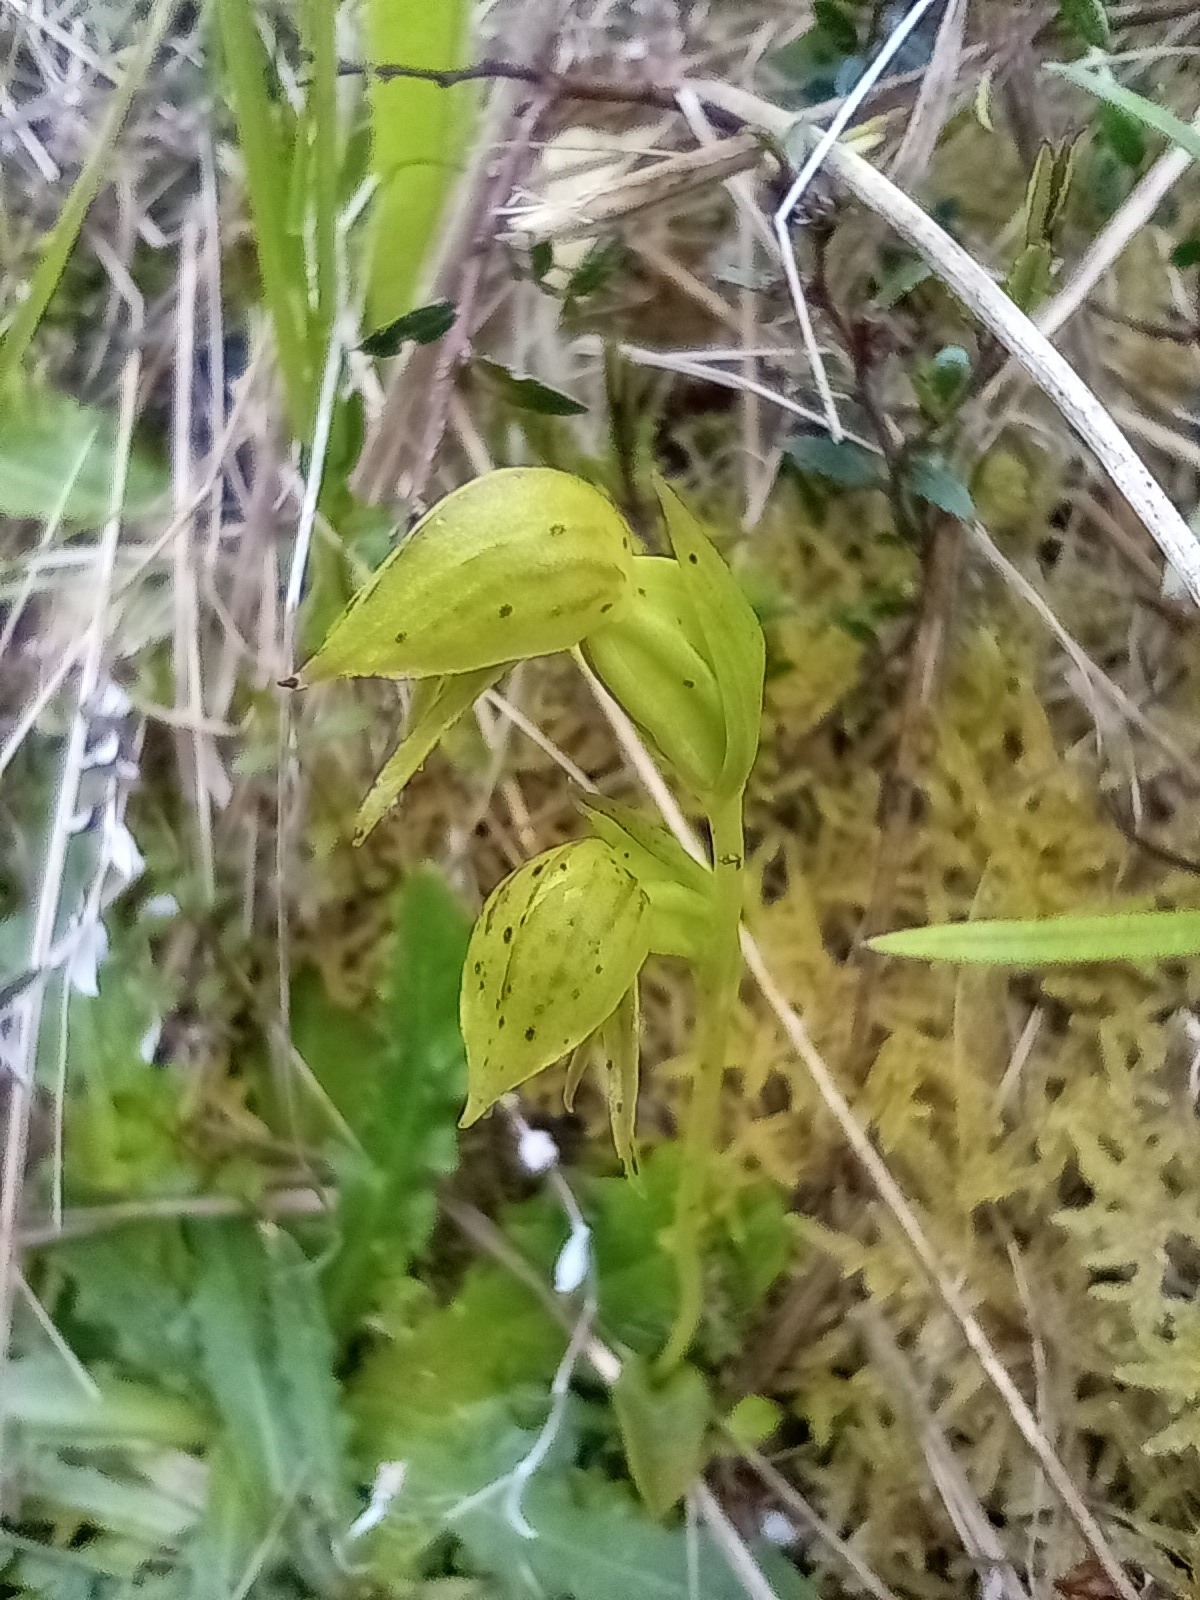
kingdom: Plantae
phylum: Tracheophyta
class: Liliopsida
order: Asparagales
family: Orchidaceae
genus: Waireia
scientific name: Waireia stenopetala
